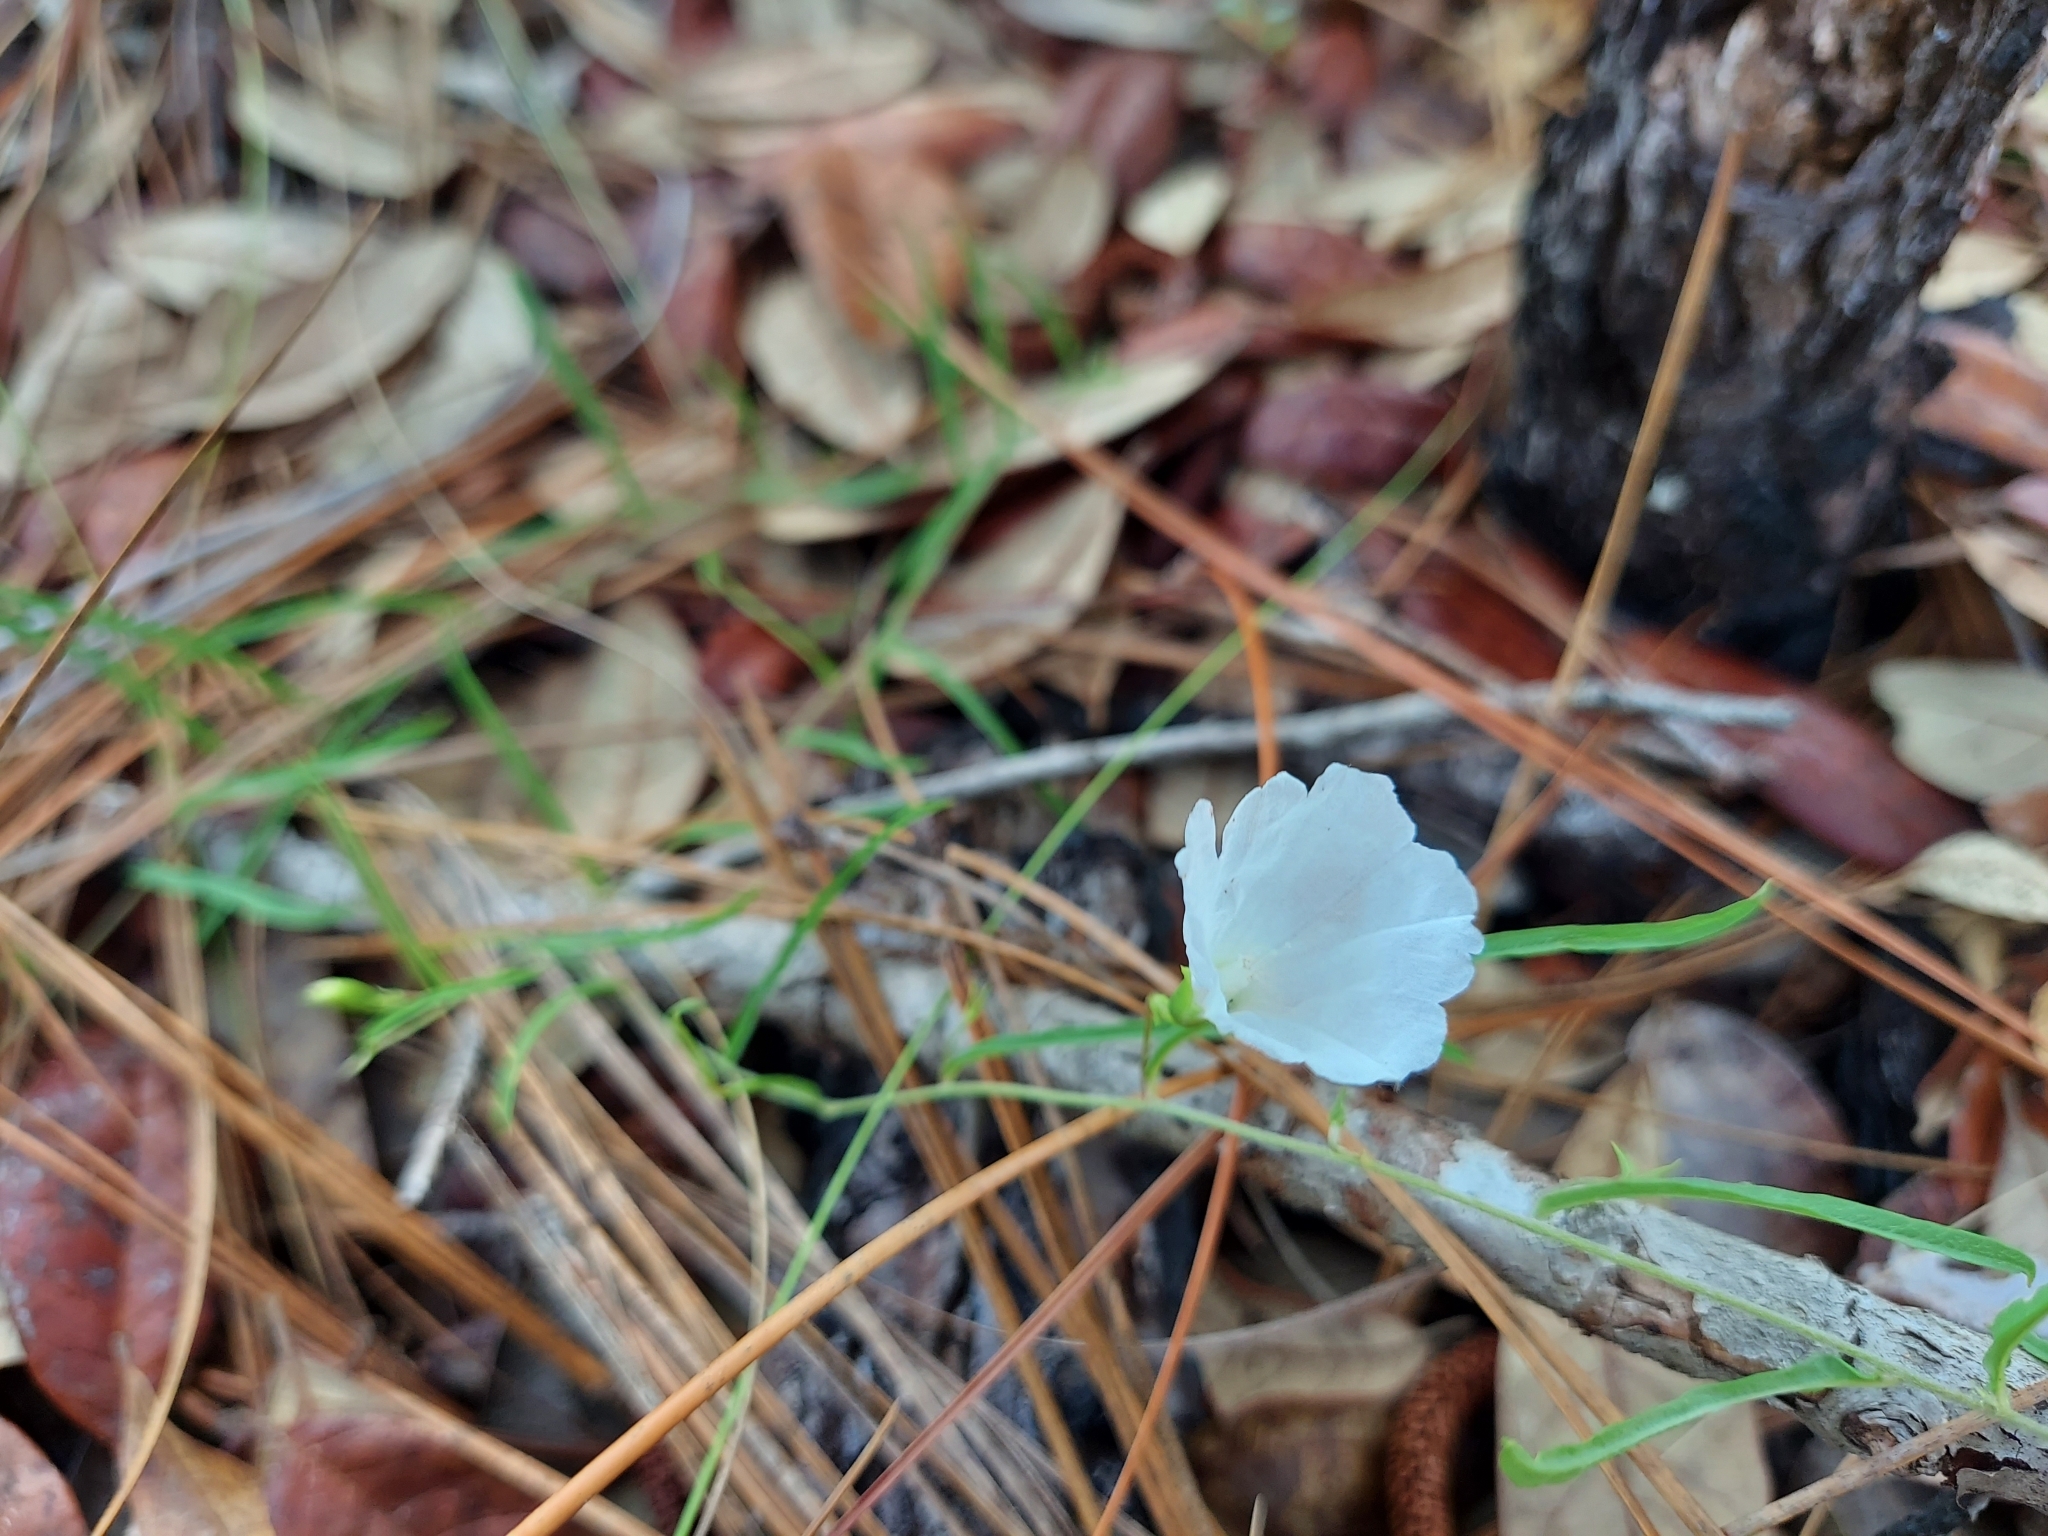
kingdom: Plantae
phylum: Tracheophyta
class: Magnoliopsida
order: Solanales
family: Convolvulaceae
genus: Stylisma
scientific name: Stylisma patens
